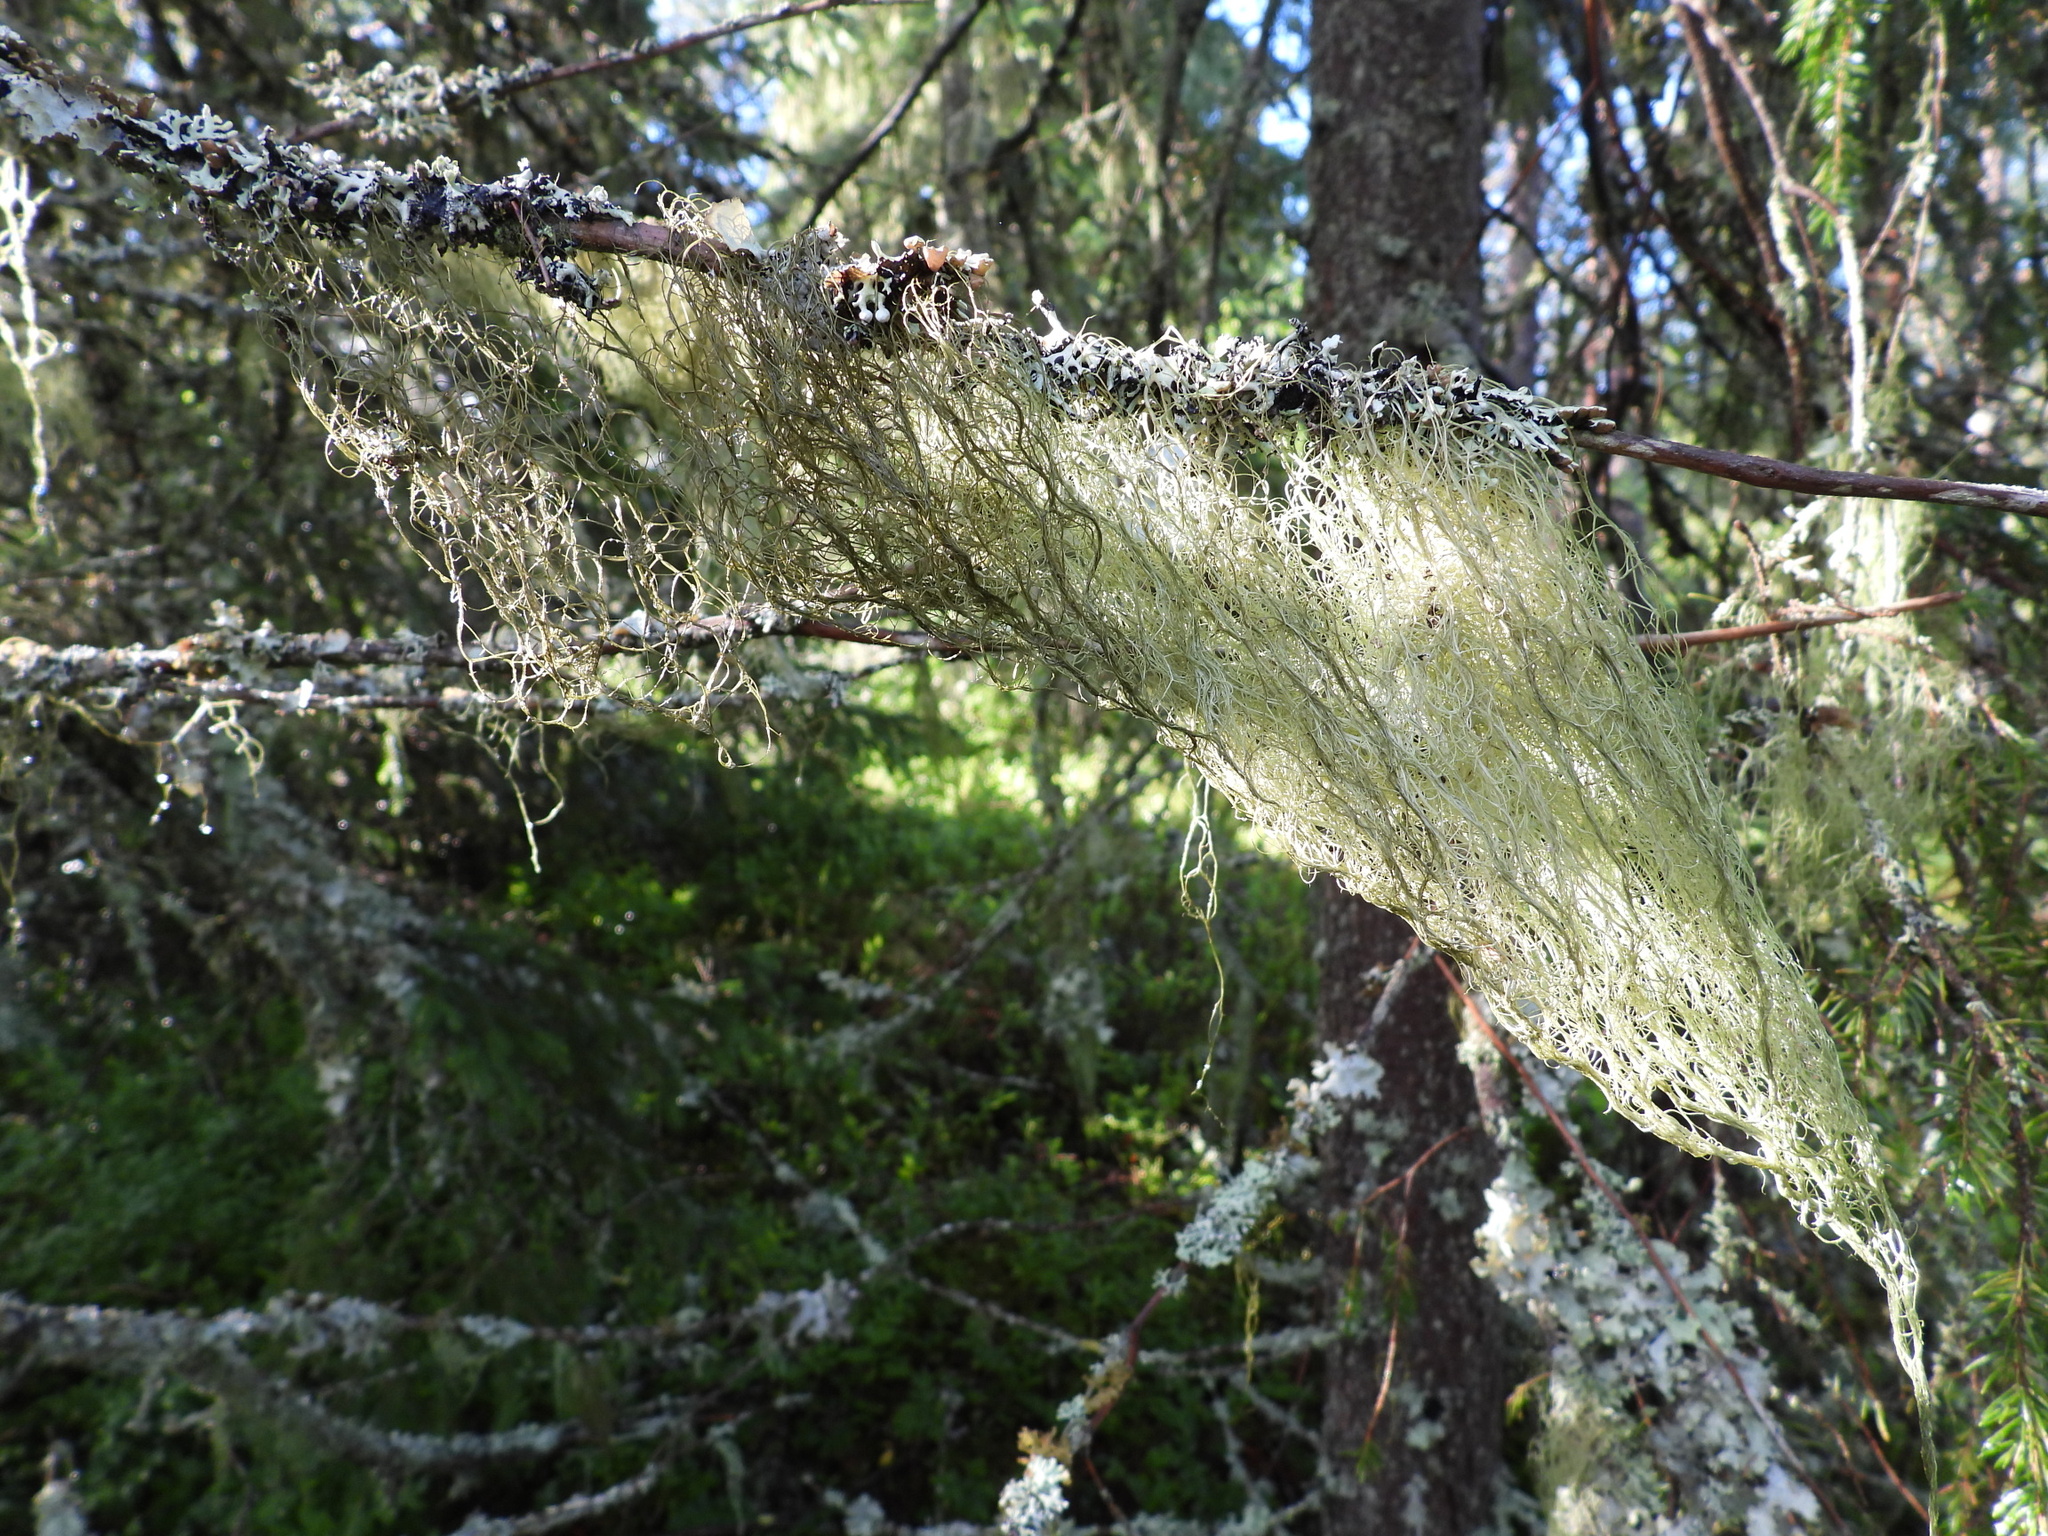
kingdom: Fungi
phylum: Ascomycota
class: Lecanoromycetes
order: Lecanorales
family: Parmeliaceae
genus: Bryoria
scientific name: Bryoria fuscescens
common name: Pale-footed horsehair lichen
